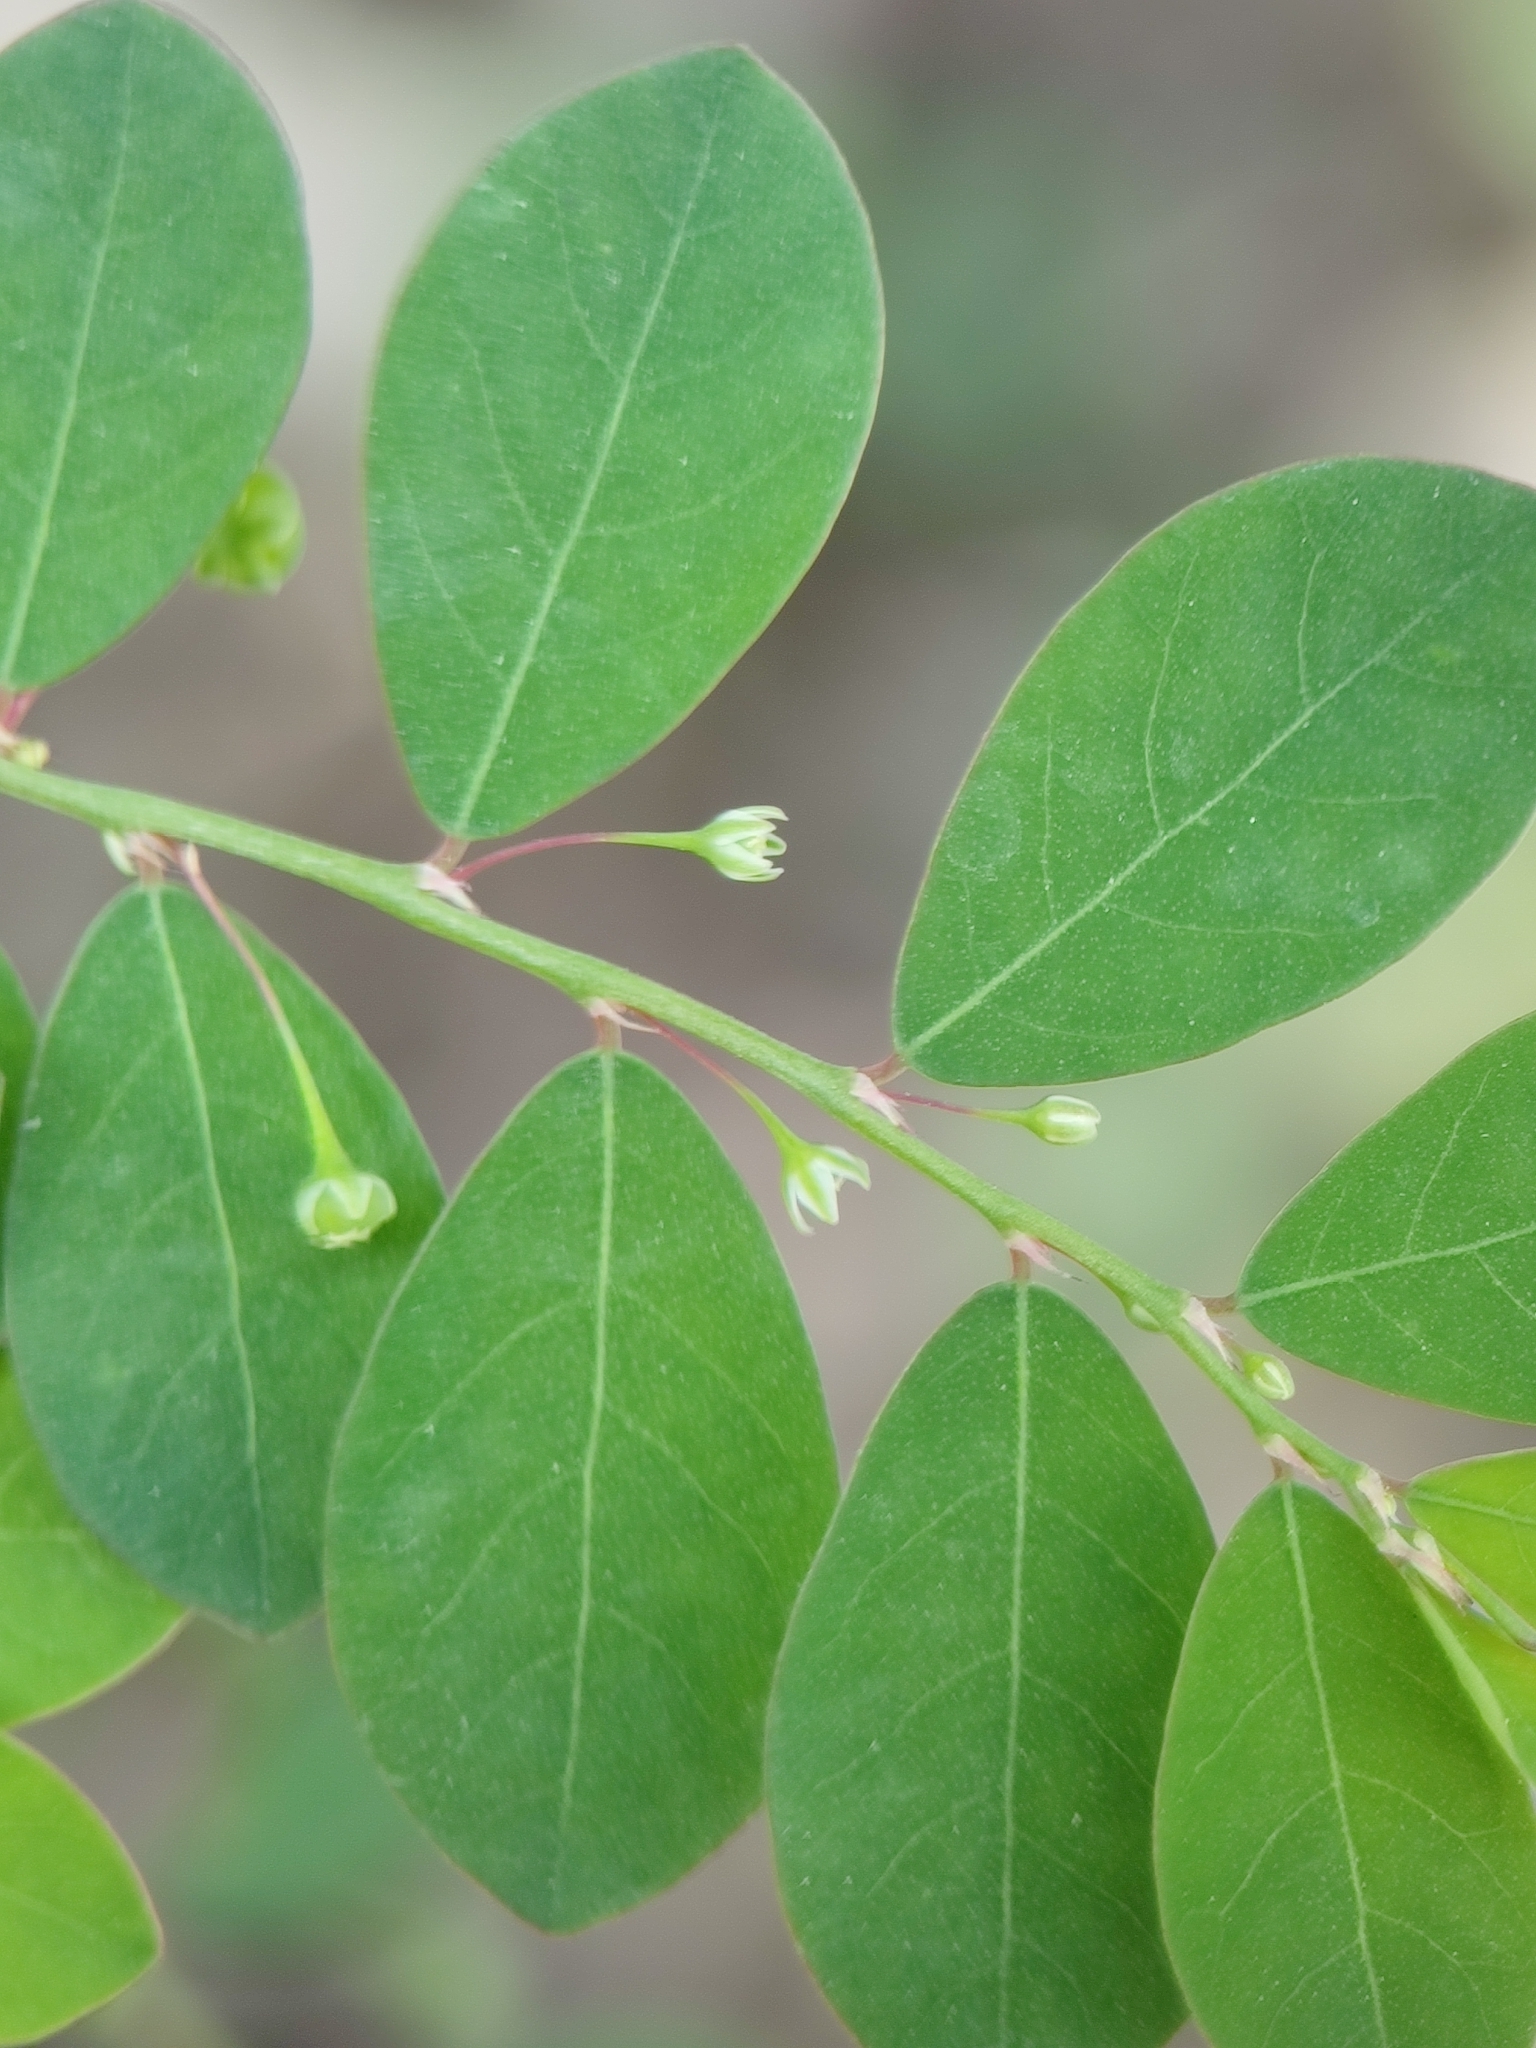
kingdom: Plantae
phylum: Tracheophyta
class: Magnoliopsida
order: Malpighiales
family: Phyllanthaceae
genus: Phyllanthus
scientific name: Phyllanthus tenellus
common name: Mascarene island leaf-flower
